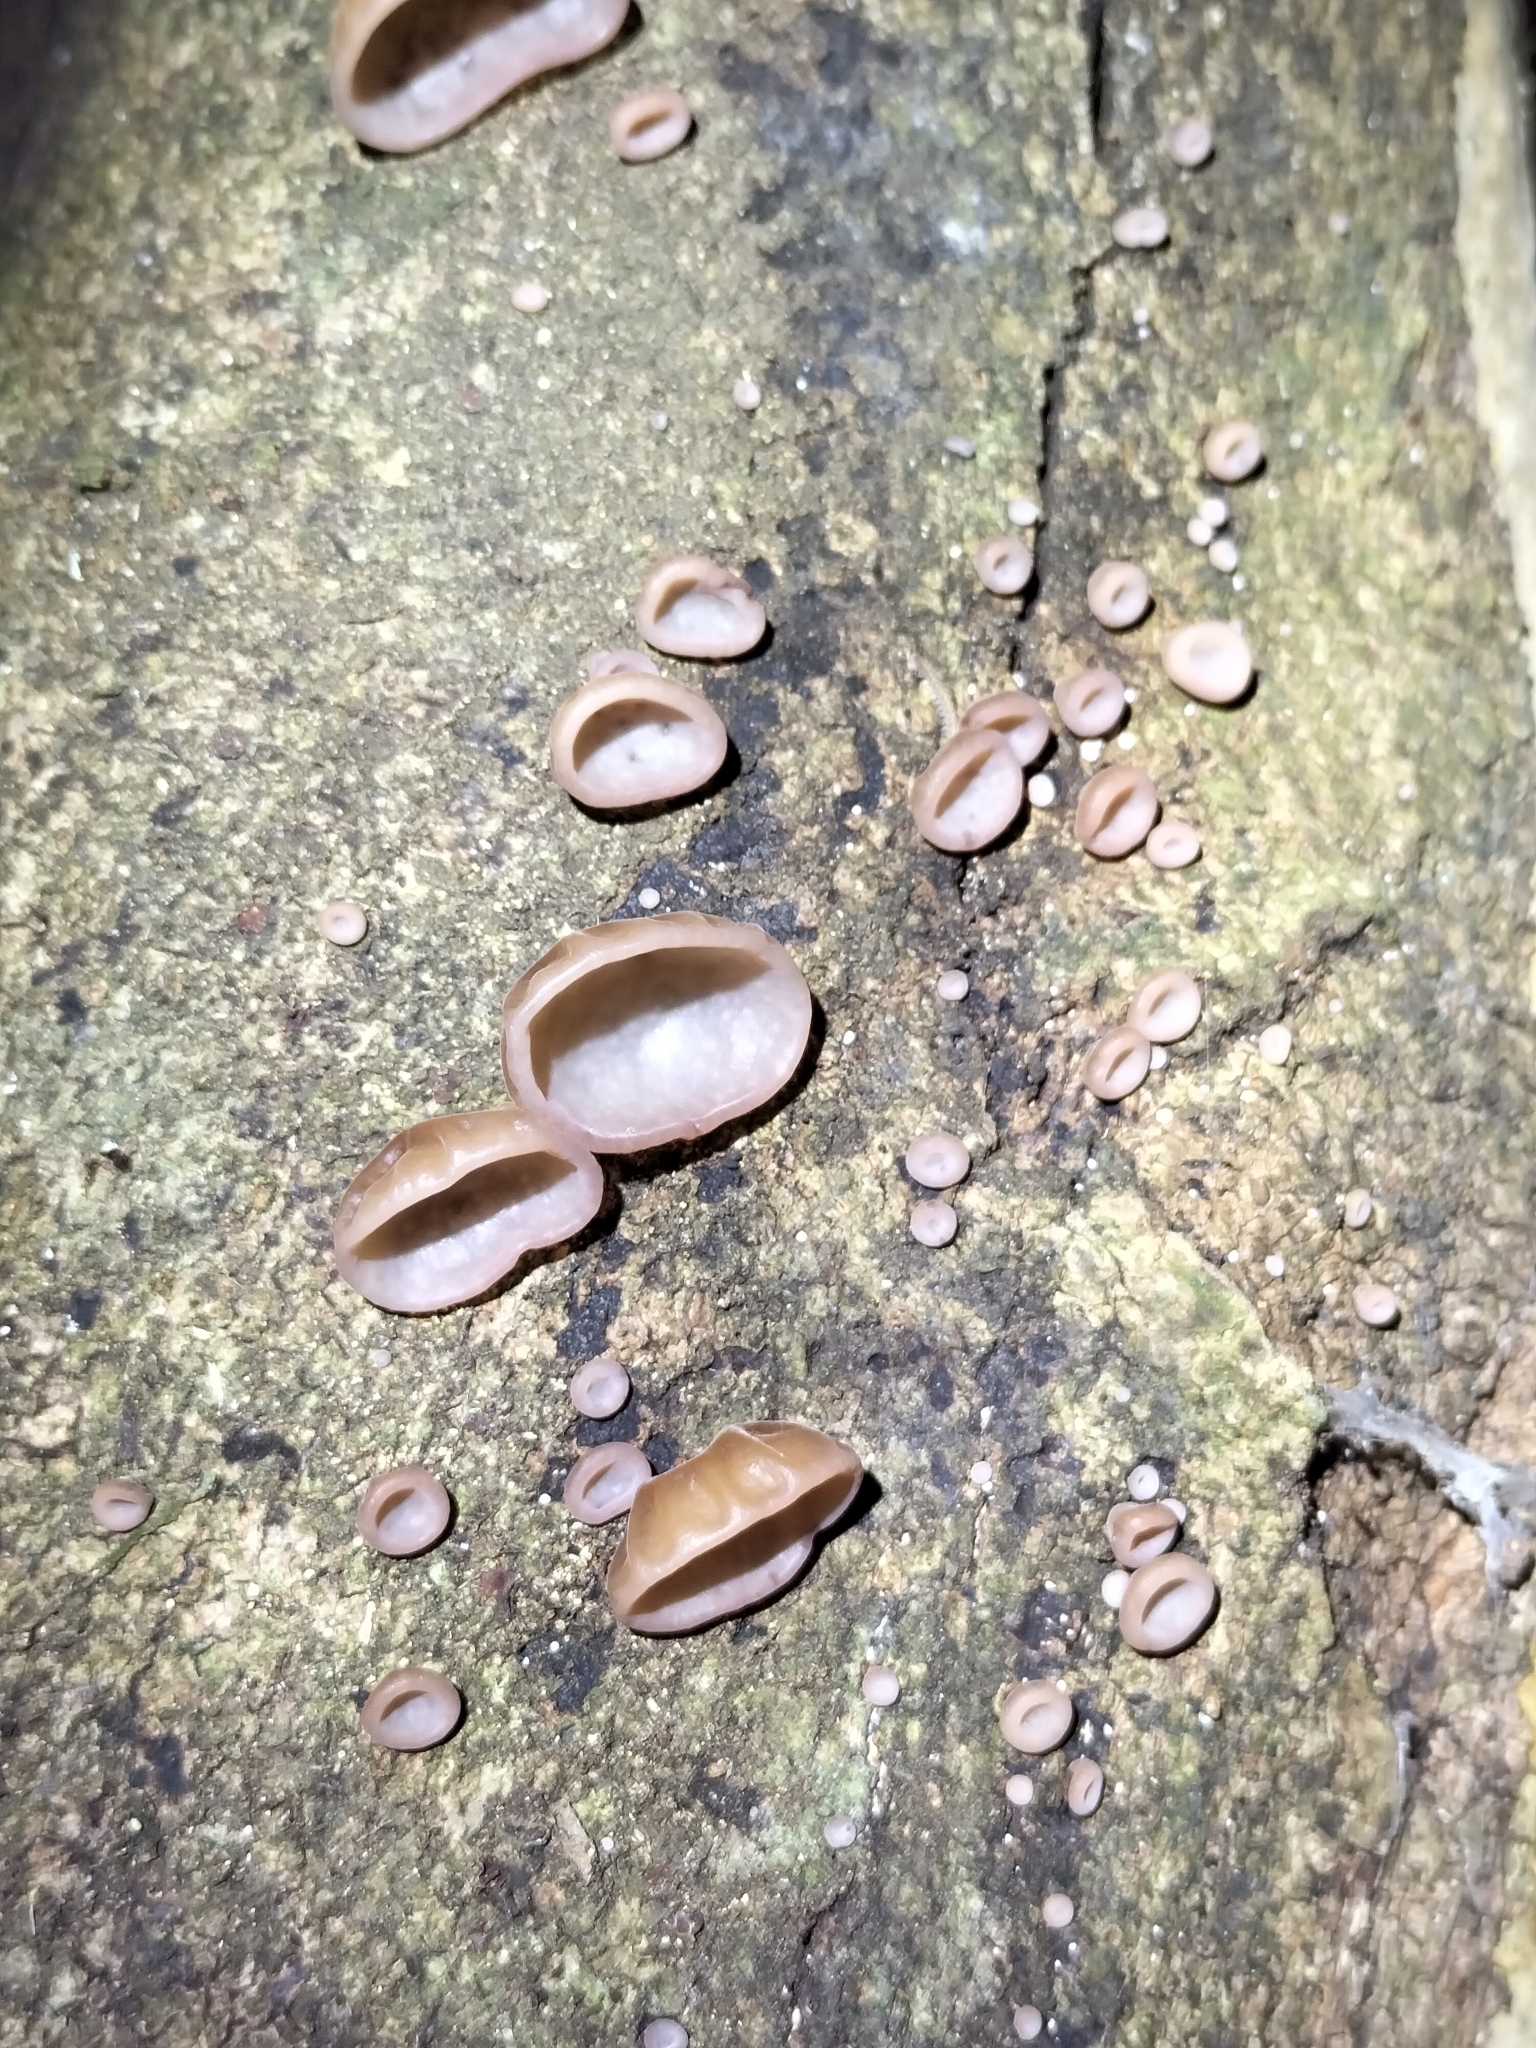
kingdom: Fungi
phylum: Basidiomycota
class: Agaricomycetes
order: Auriculariales
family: Auriculariaceae
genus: Auricularia
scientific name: Auricularia cornea
